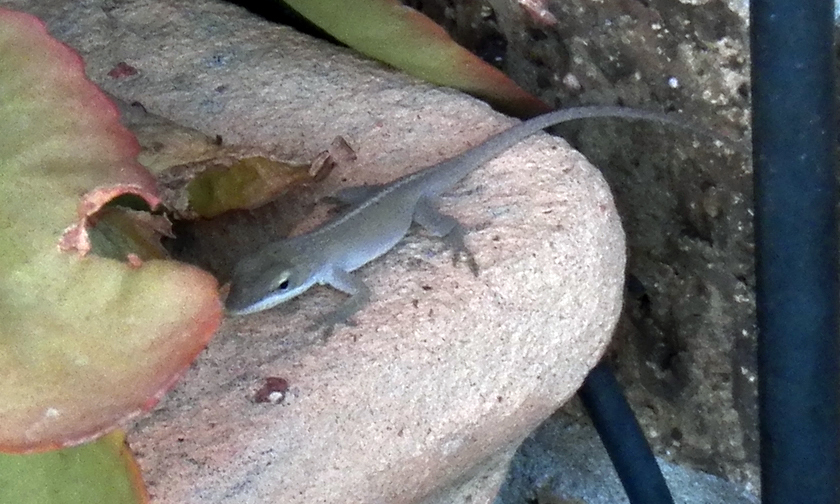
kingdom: Animalia
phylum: Chordata
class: Squamata
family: Dactyloidae
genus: Anolis
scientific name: Anolis carolinensis
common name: Green anole
